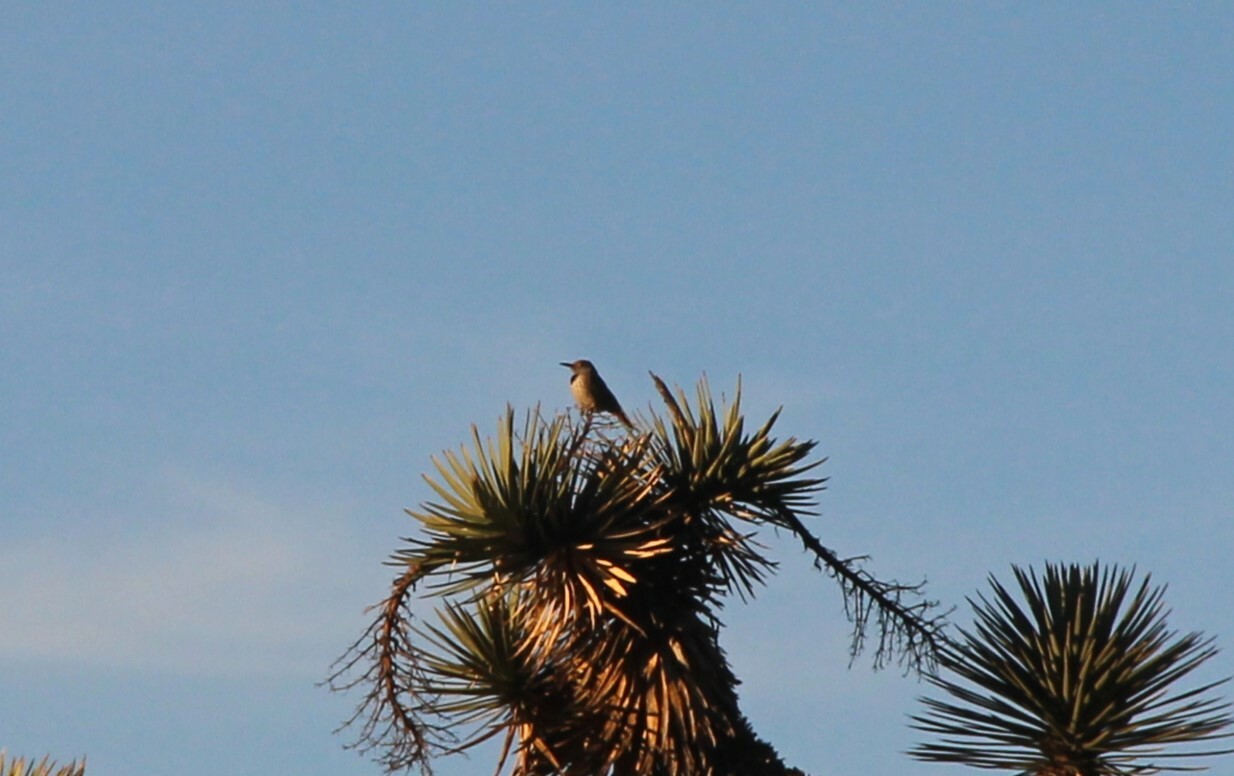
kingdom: Animalia
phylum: Chordata
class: Aves
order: Piciformes
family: Picidae
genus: Colaptes
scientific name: Colaptes auratus
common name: Northern flicker
